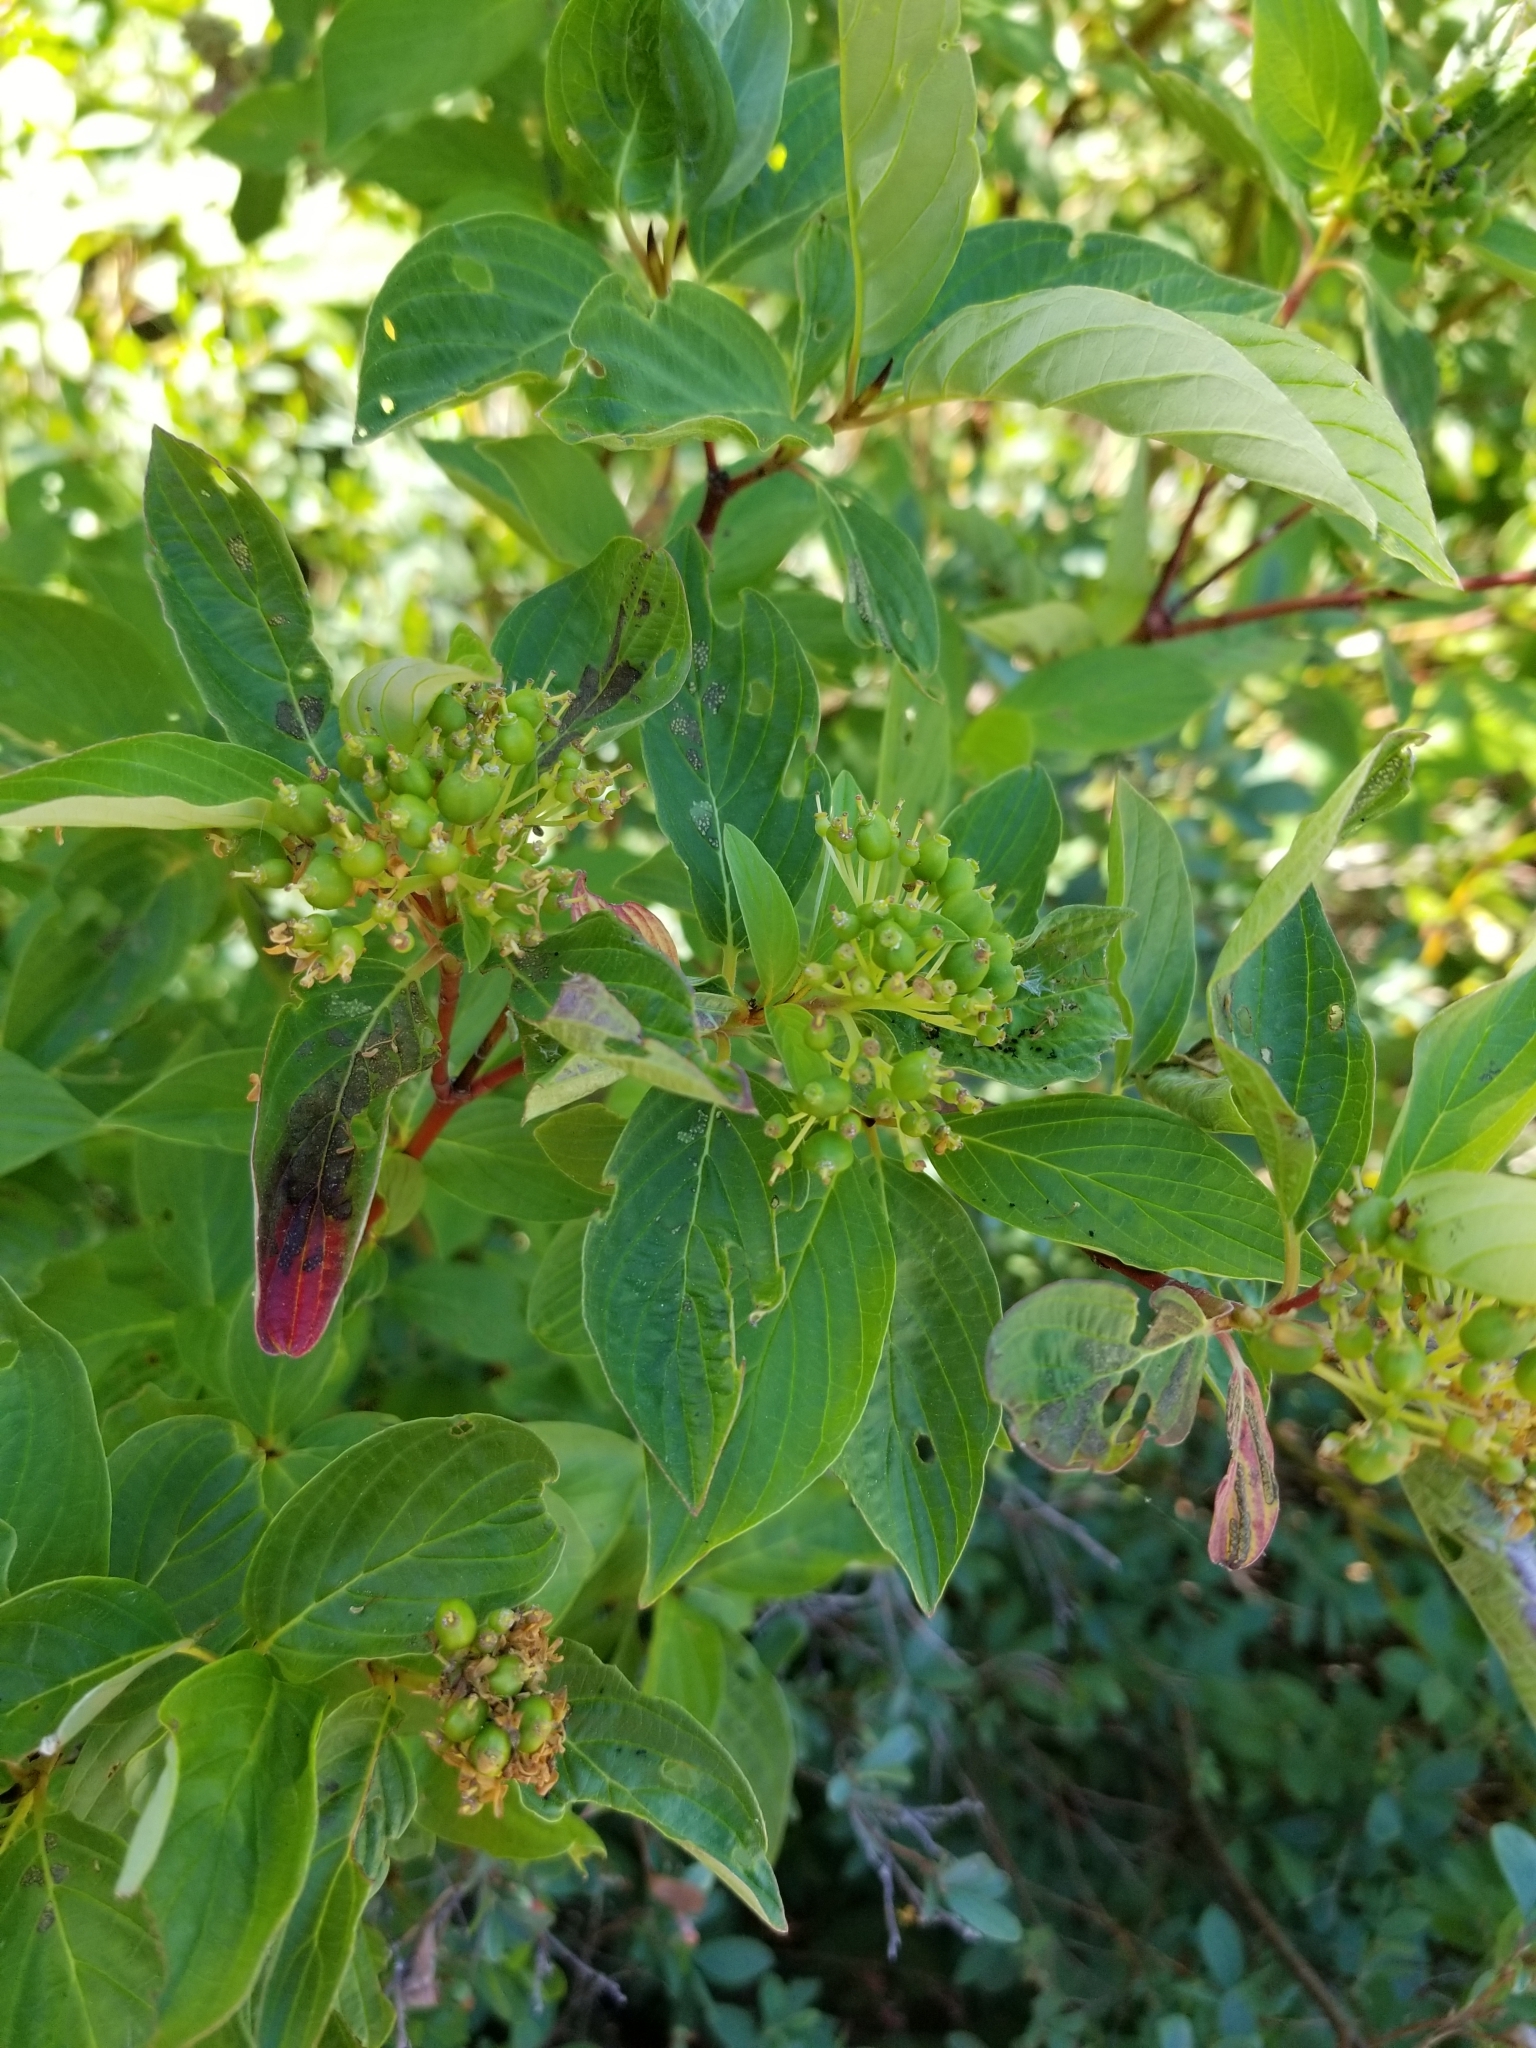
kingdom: Plantae
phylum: Tracheophyta
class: Magnoliopsida
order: Cornales
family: Cornaceae
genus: Cornus
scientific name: Cornus sericea
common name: Red-osier dogwood
